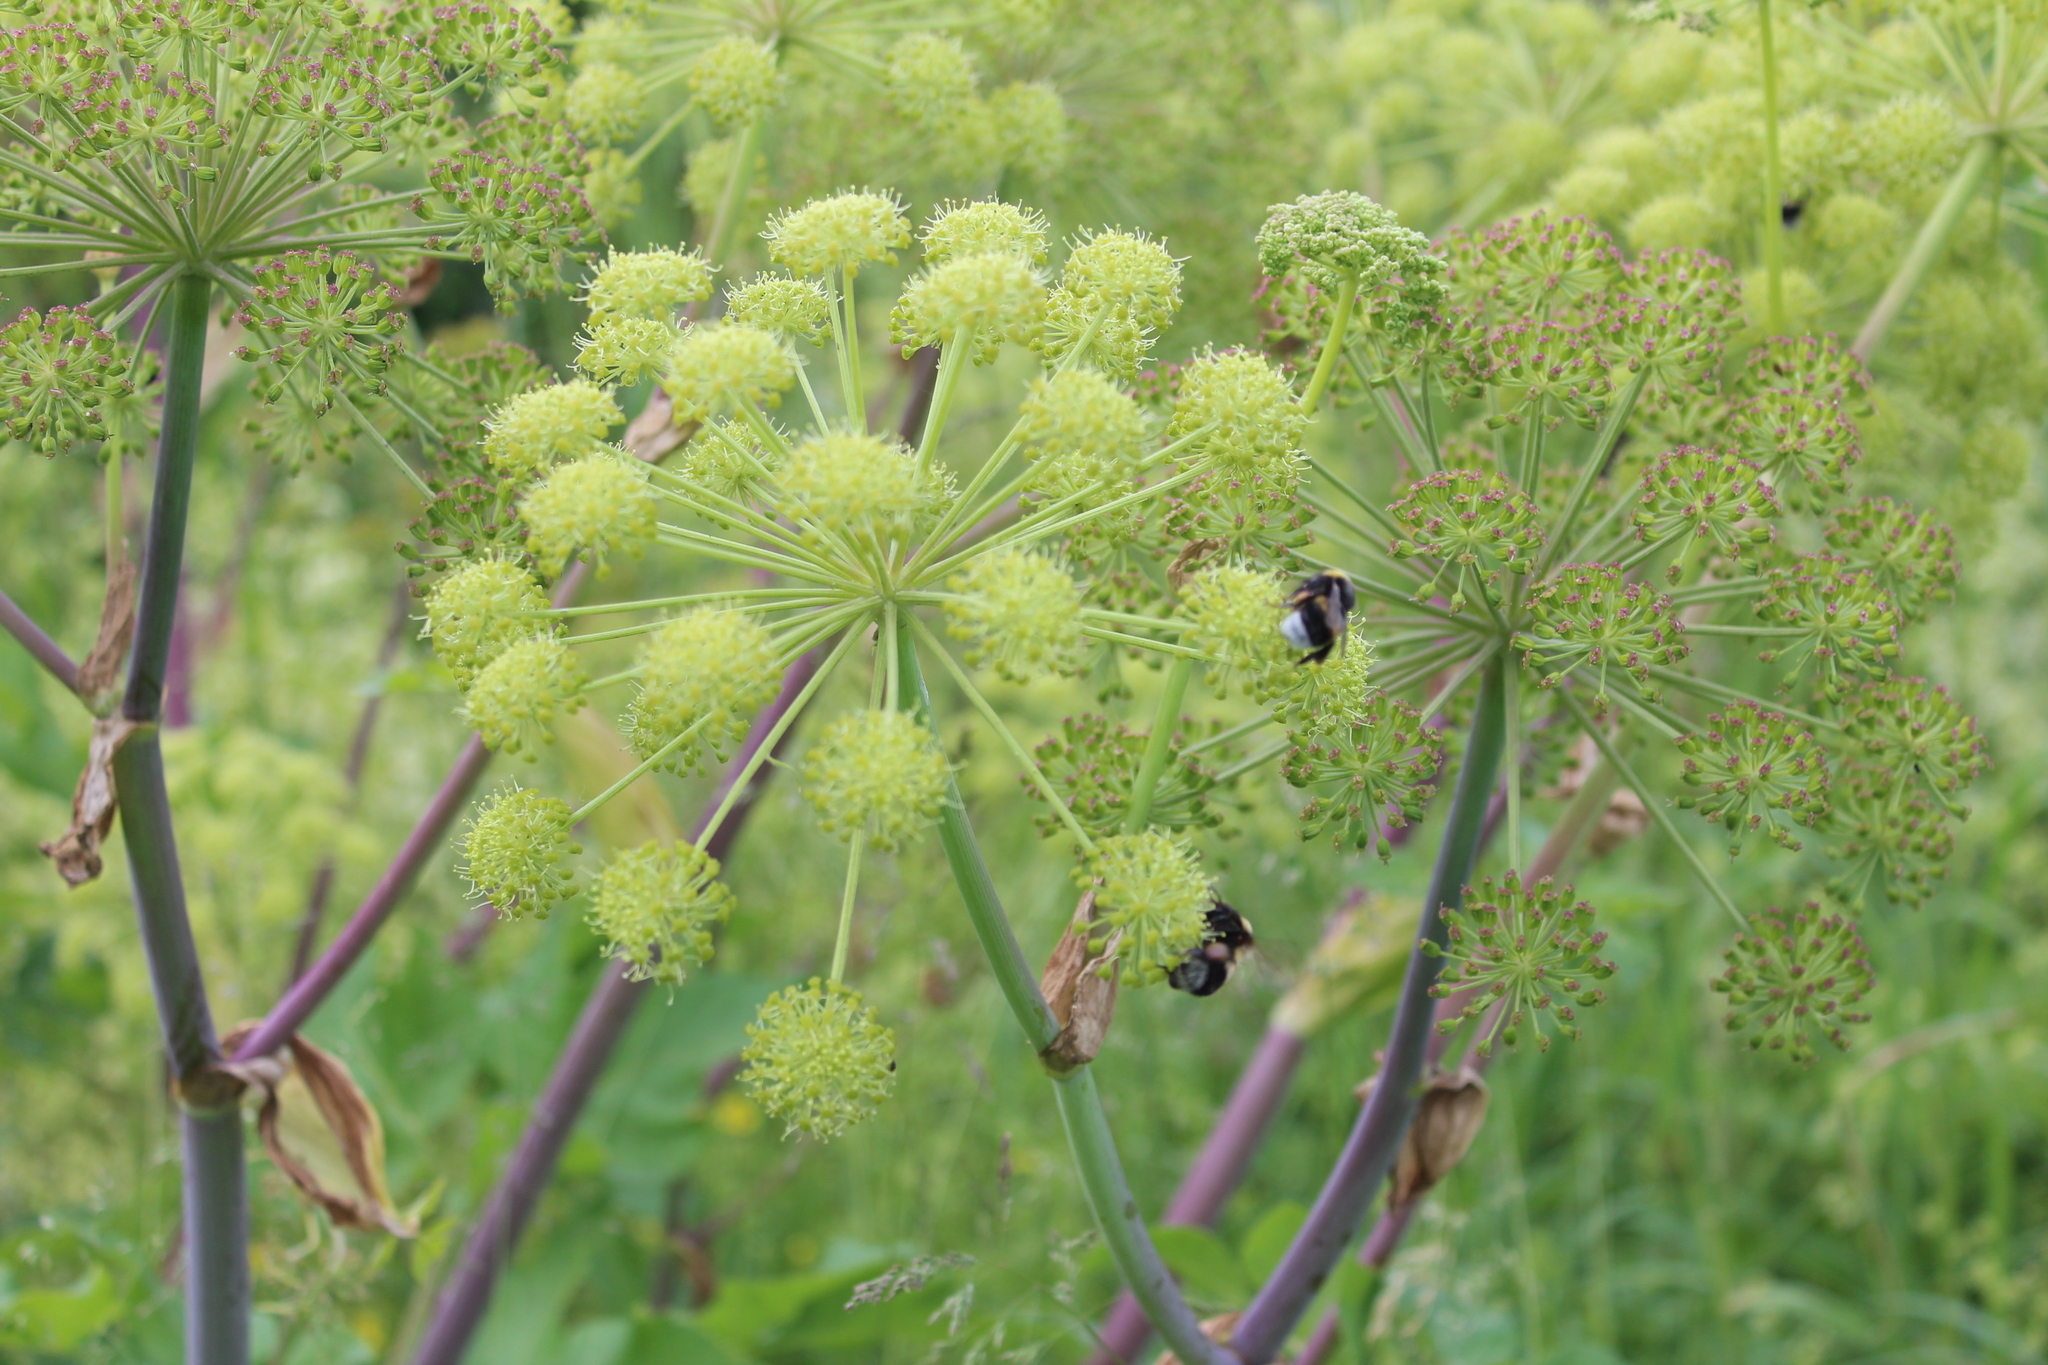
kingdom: Plantae
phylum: Tracheophyta
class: Magnoliopsida
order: Apiales
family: Apiaceae
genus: Angelica
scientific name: Angelica decurrens
